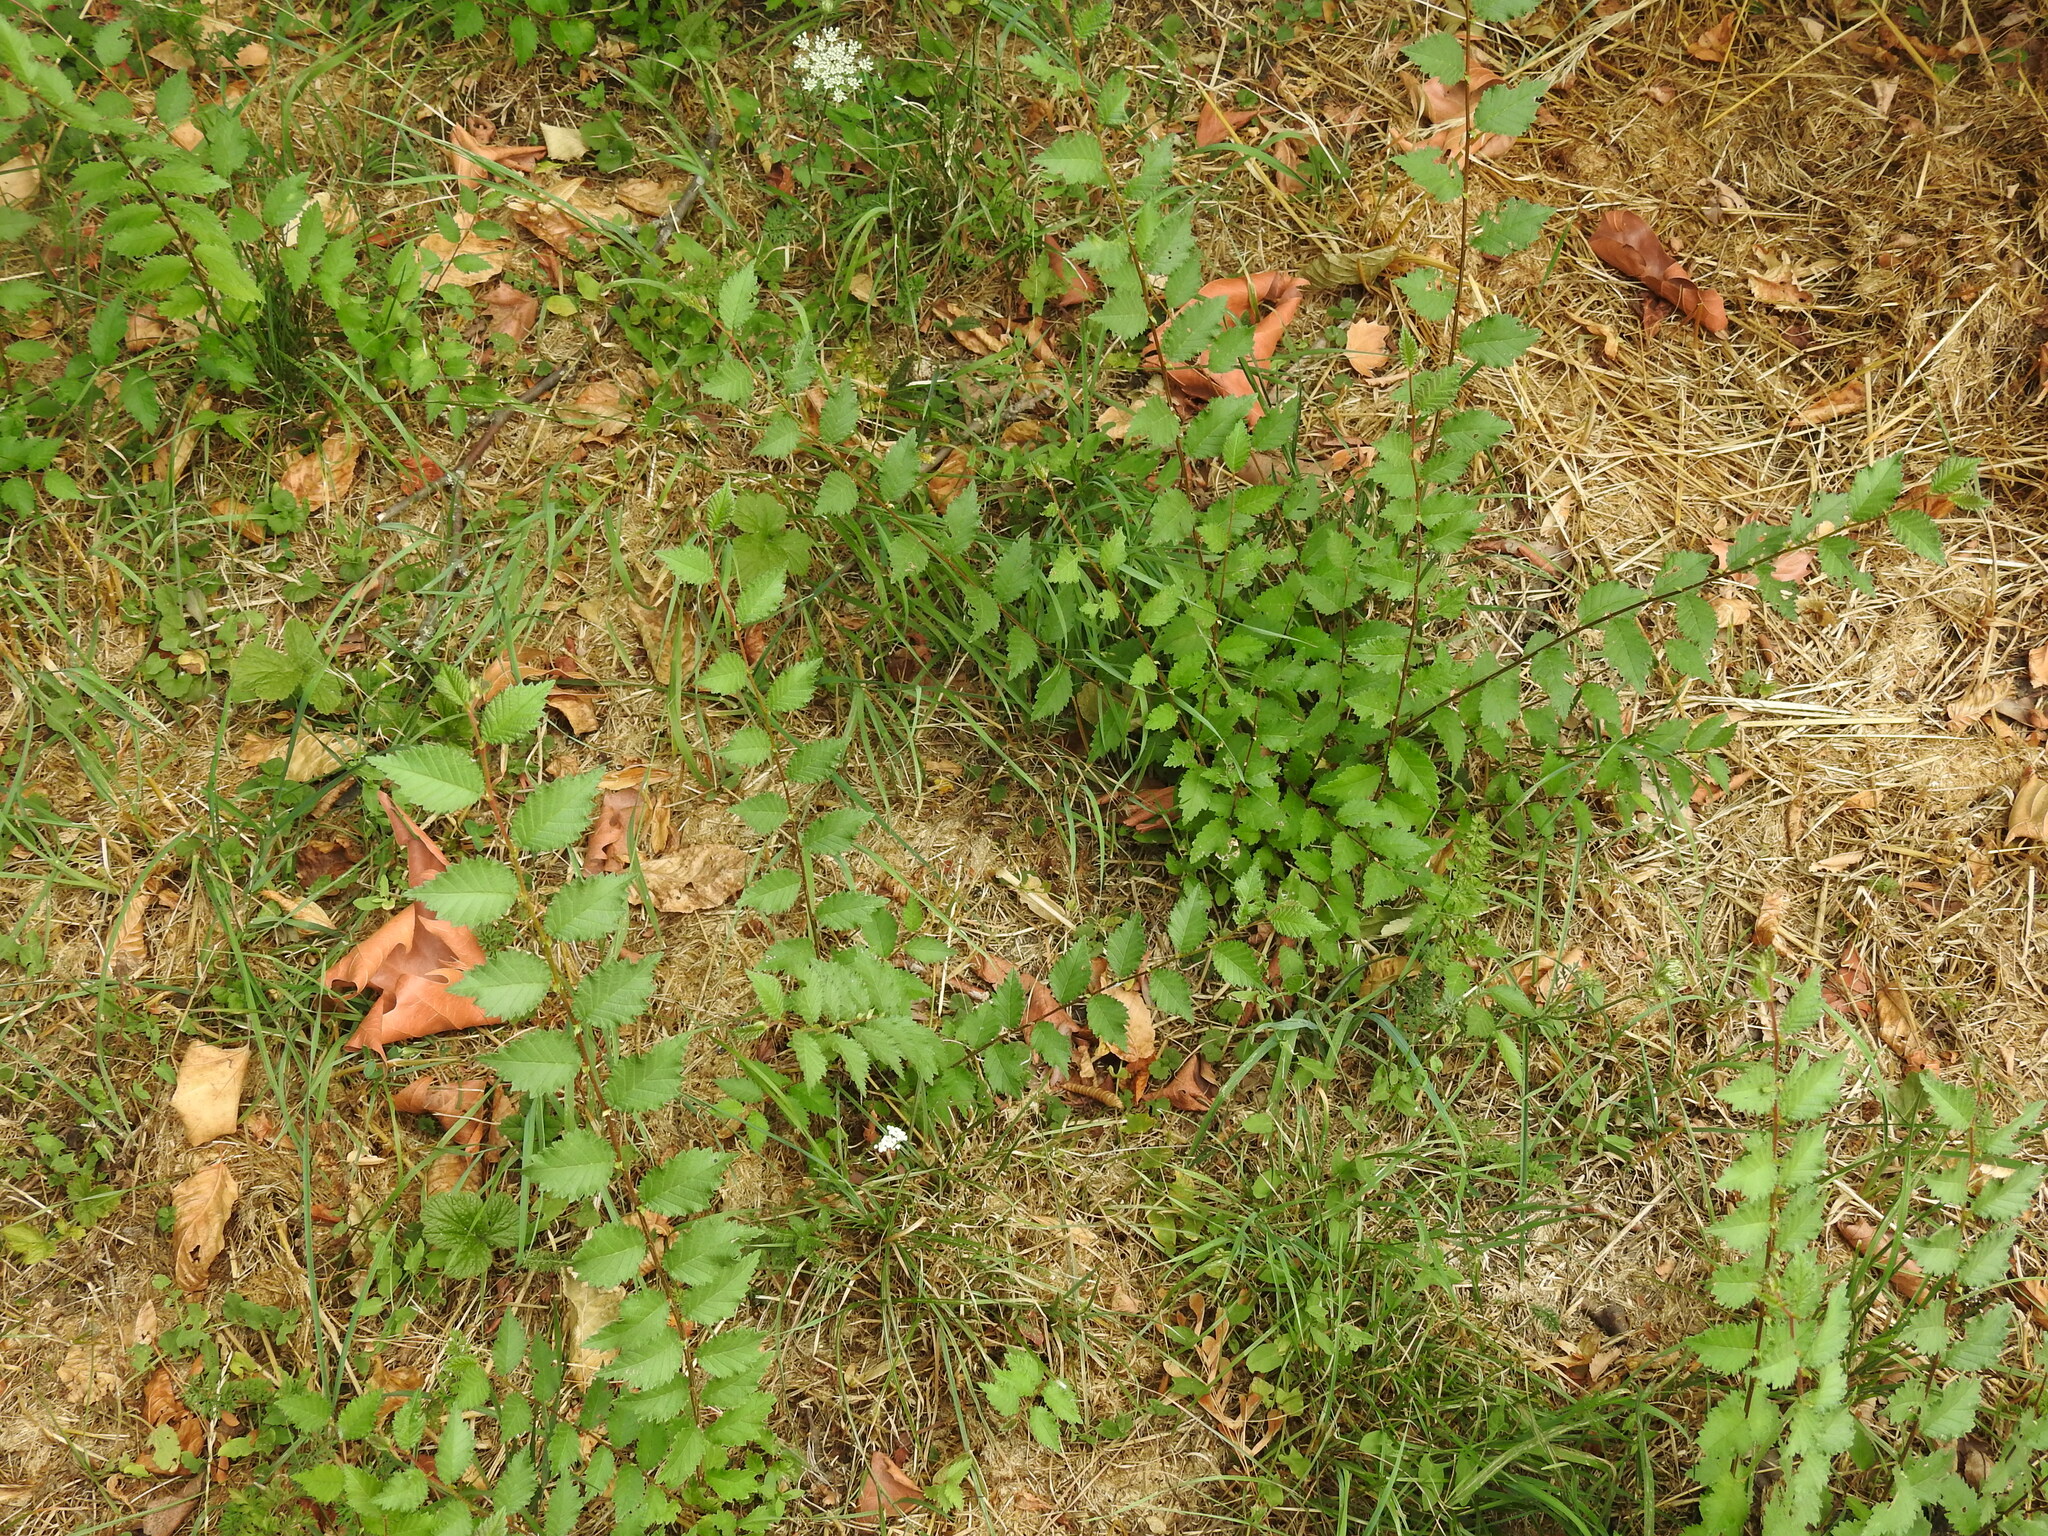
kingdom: Plantae
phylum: Tracheophyta
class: Magnoliopsida
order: Rosales
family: Ulmaceae
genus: Ulmus
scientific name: Ulmus minor
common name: Small-leaved elm
